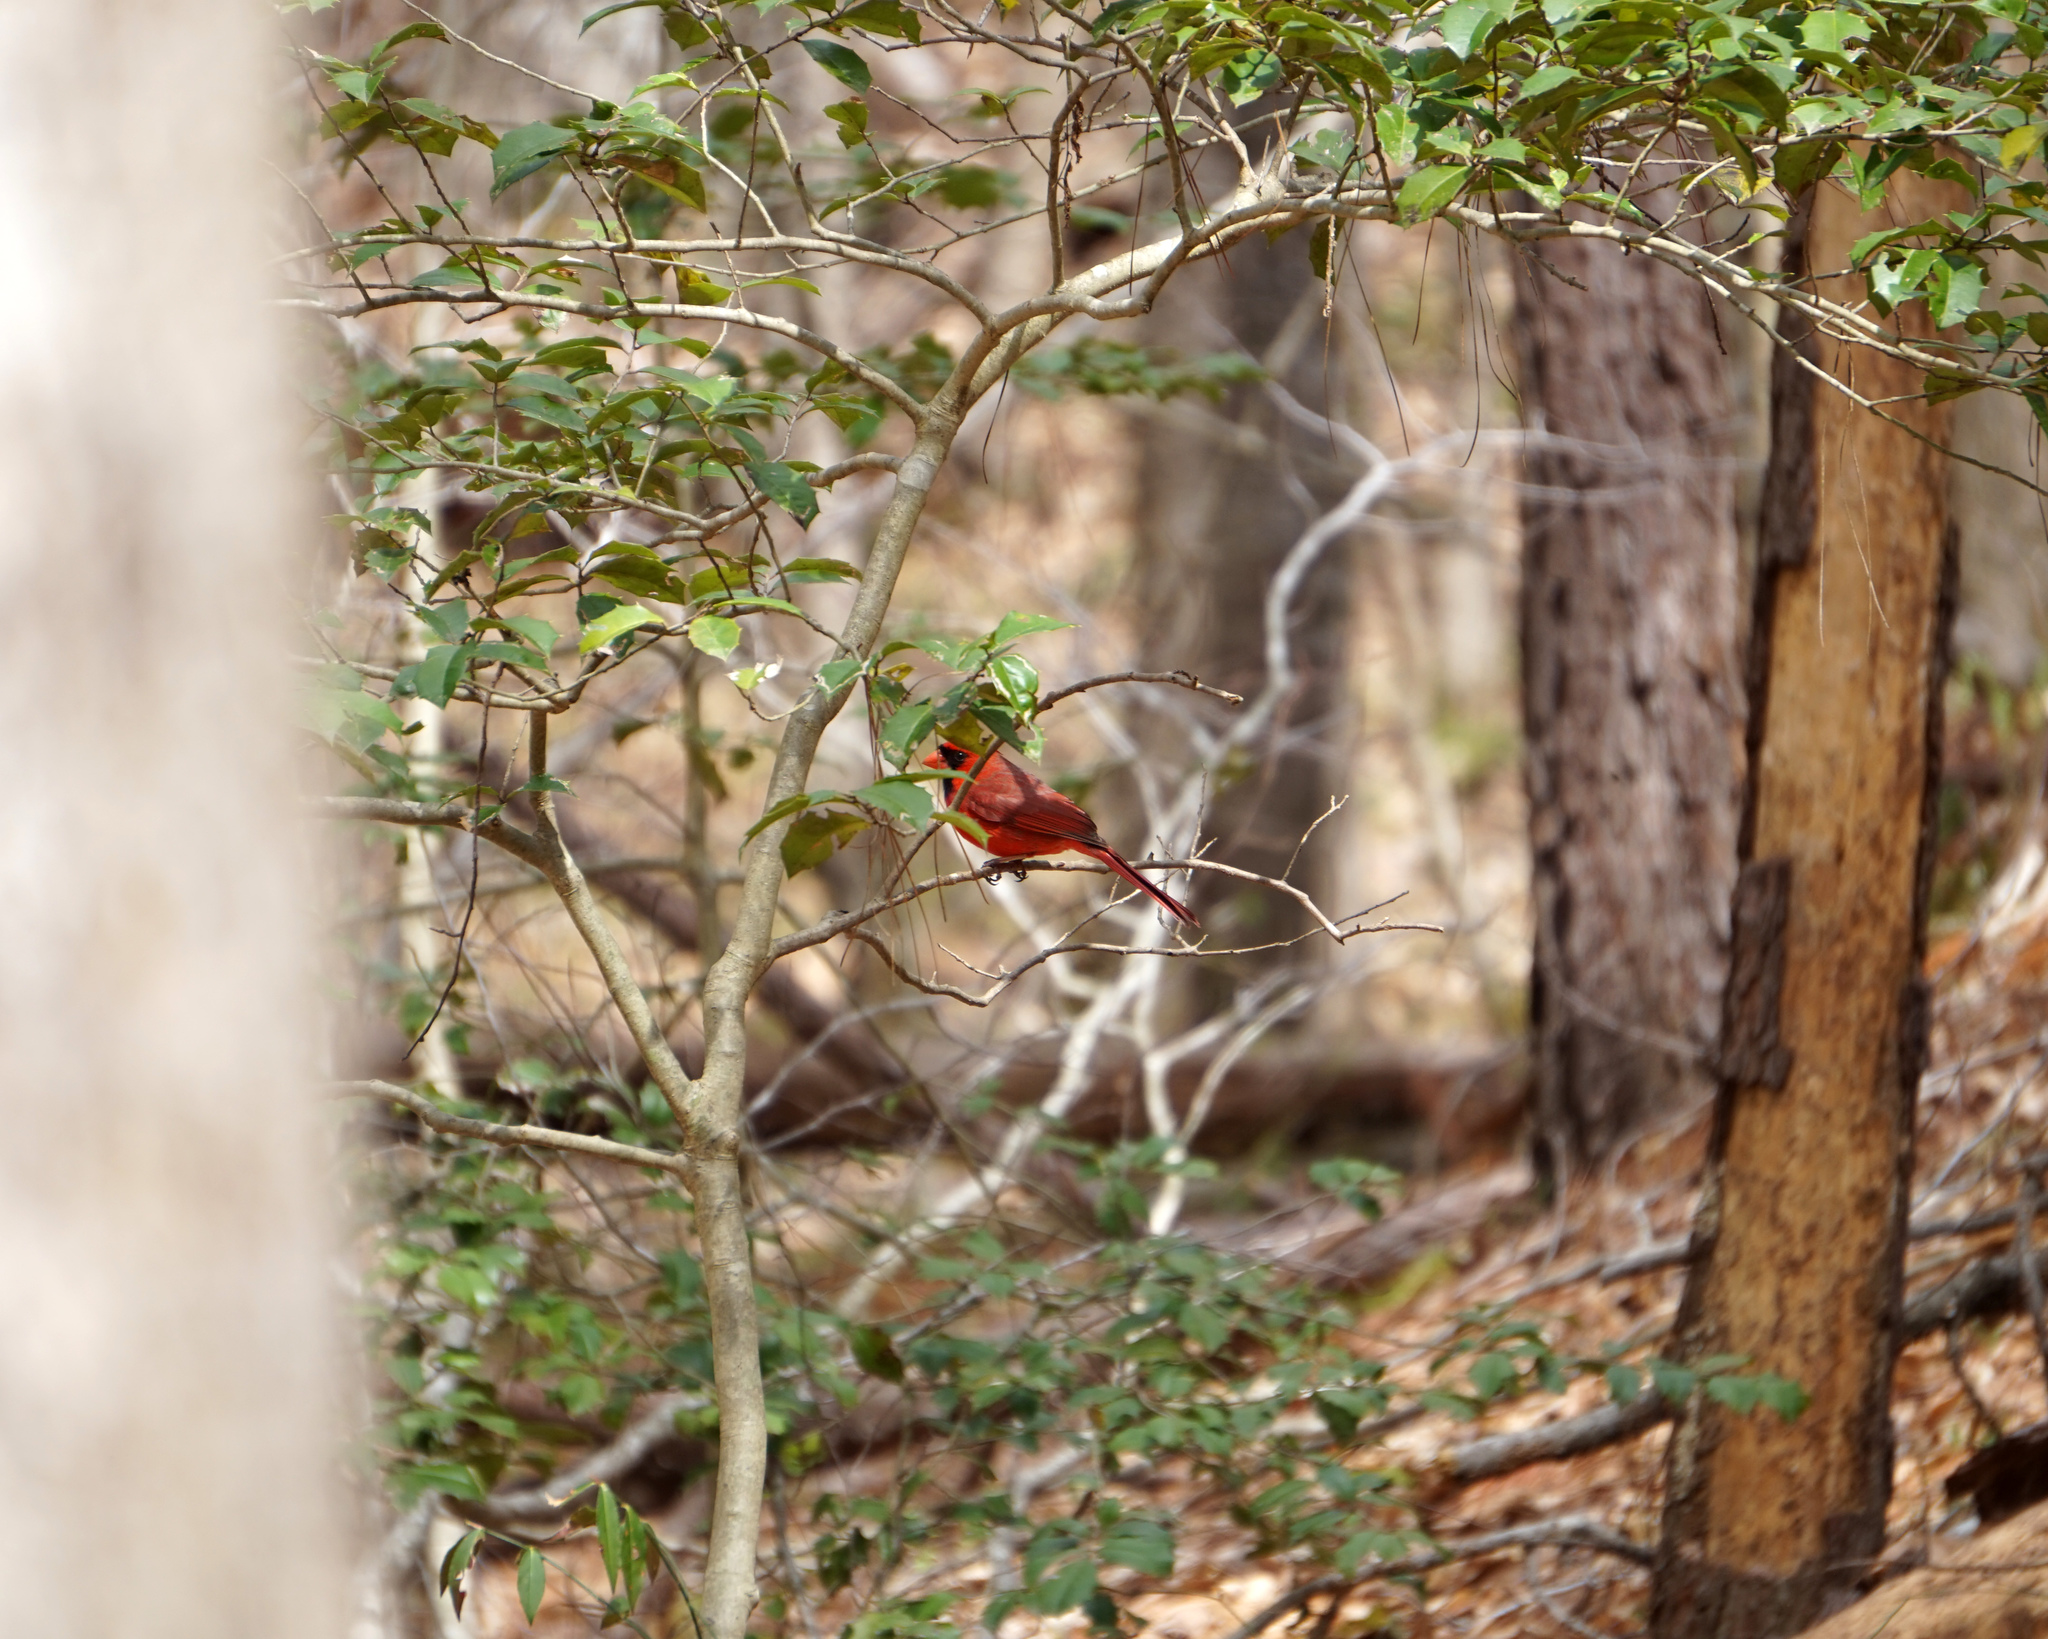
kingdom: Animalia
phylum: Chordata
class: Aves
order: Passeriformes
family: Cardinalidae
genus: Cardinalis
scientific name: Cardinalis cardinalis
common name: Northern cardinal
